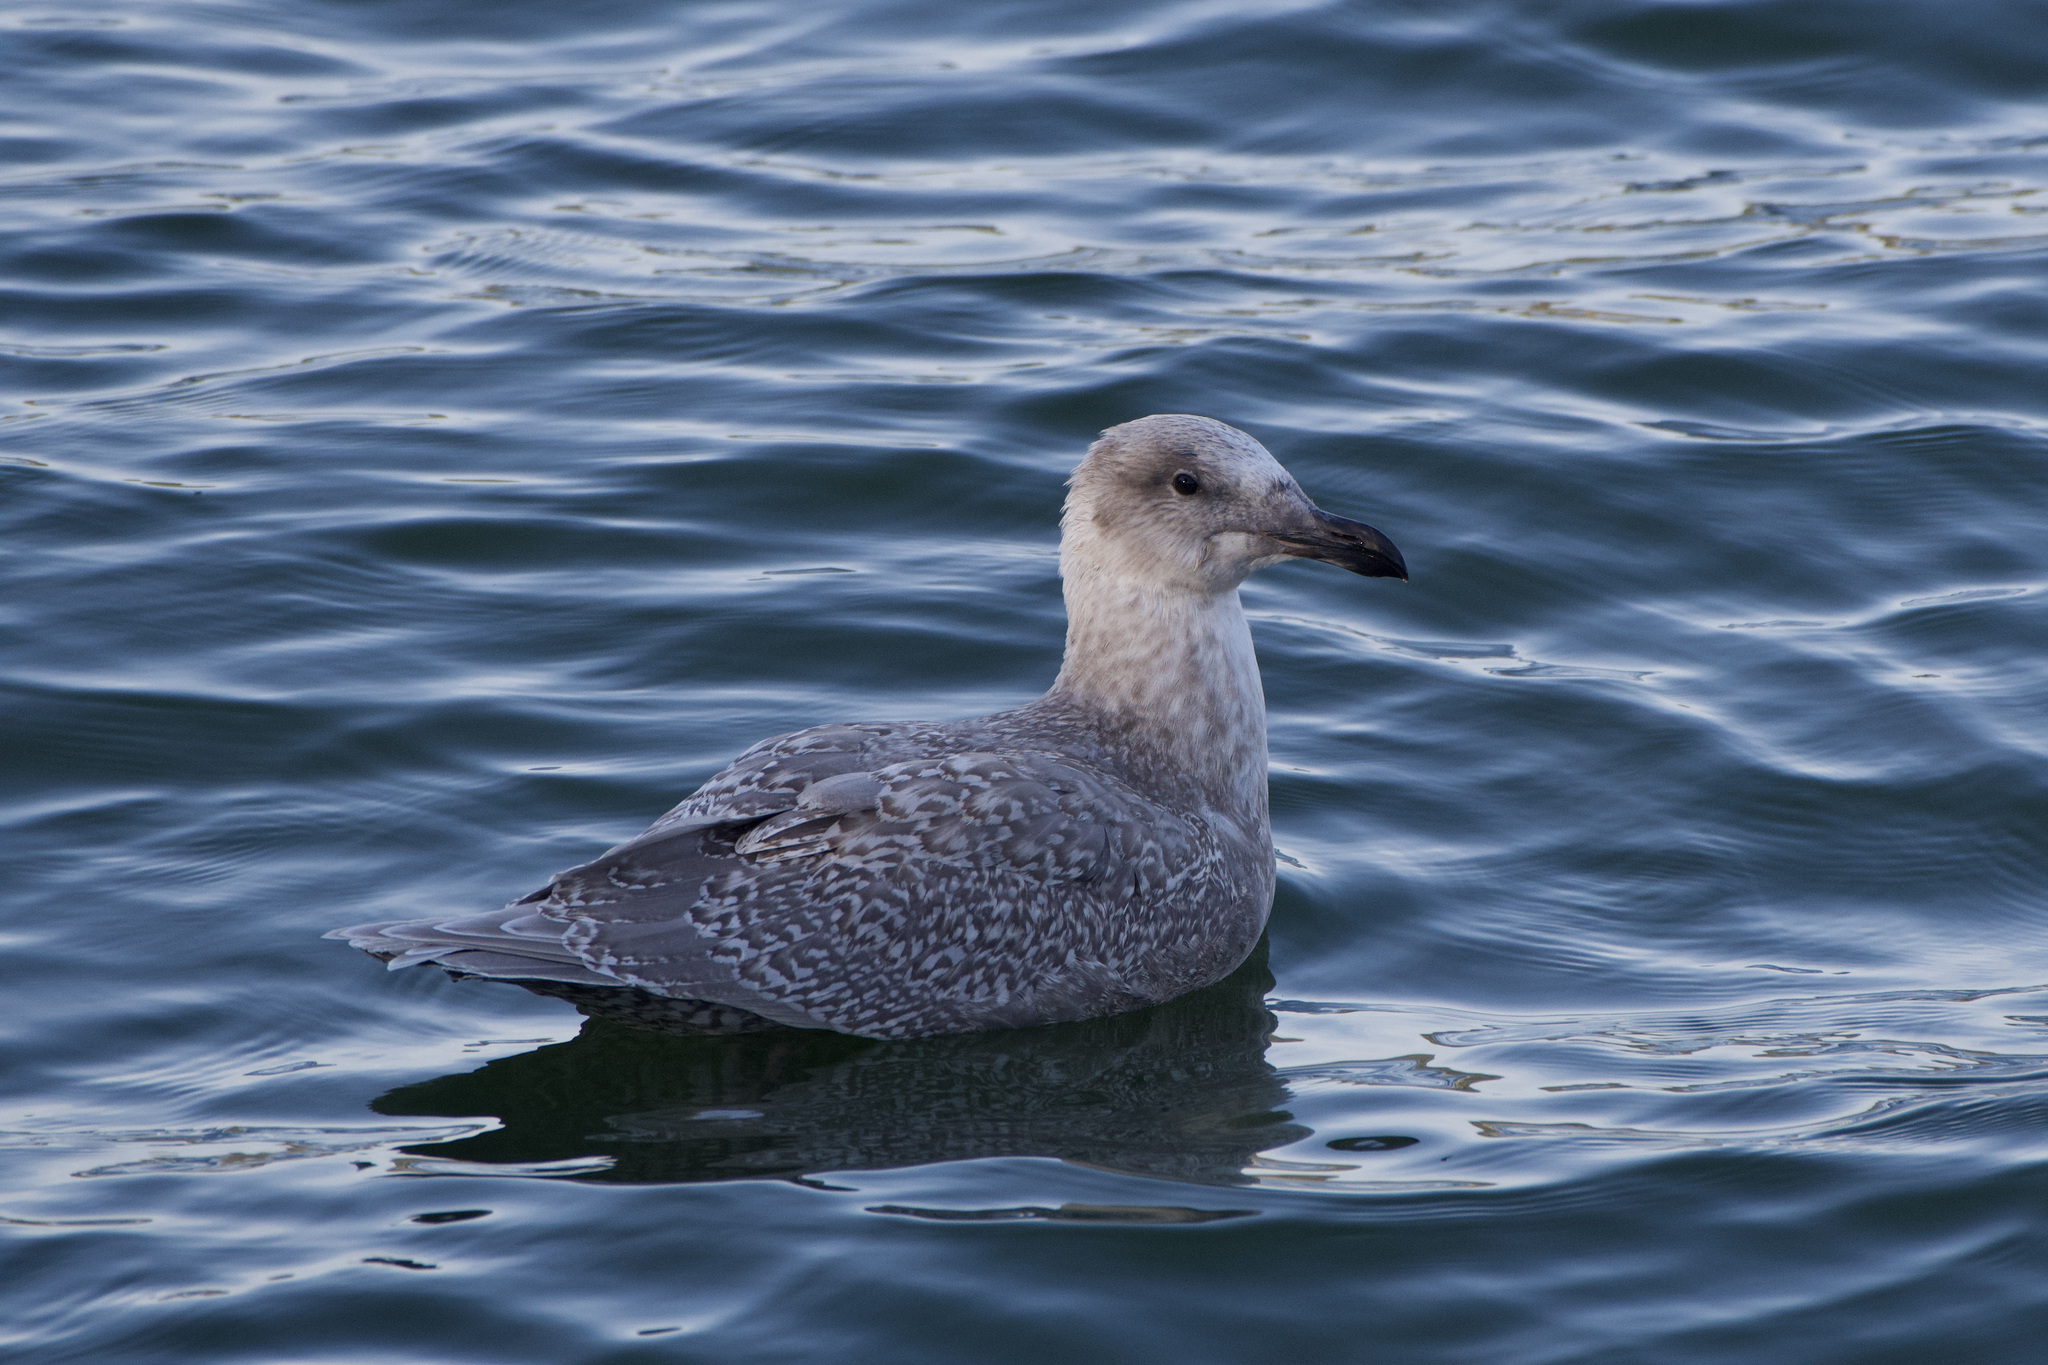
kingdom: Animalia
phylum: Chordata
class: Aves
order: Charadriiformes
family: Laridae
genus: Larus
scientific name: Larus
